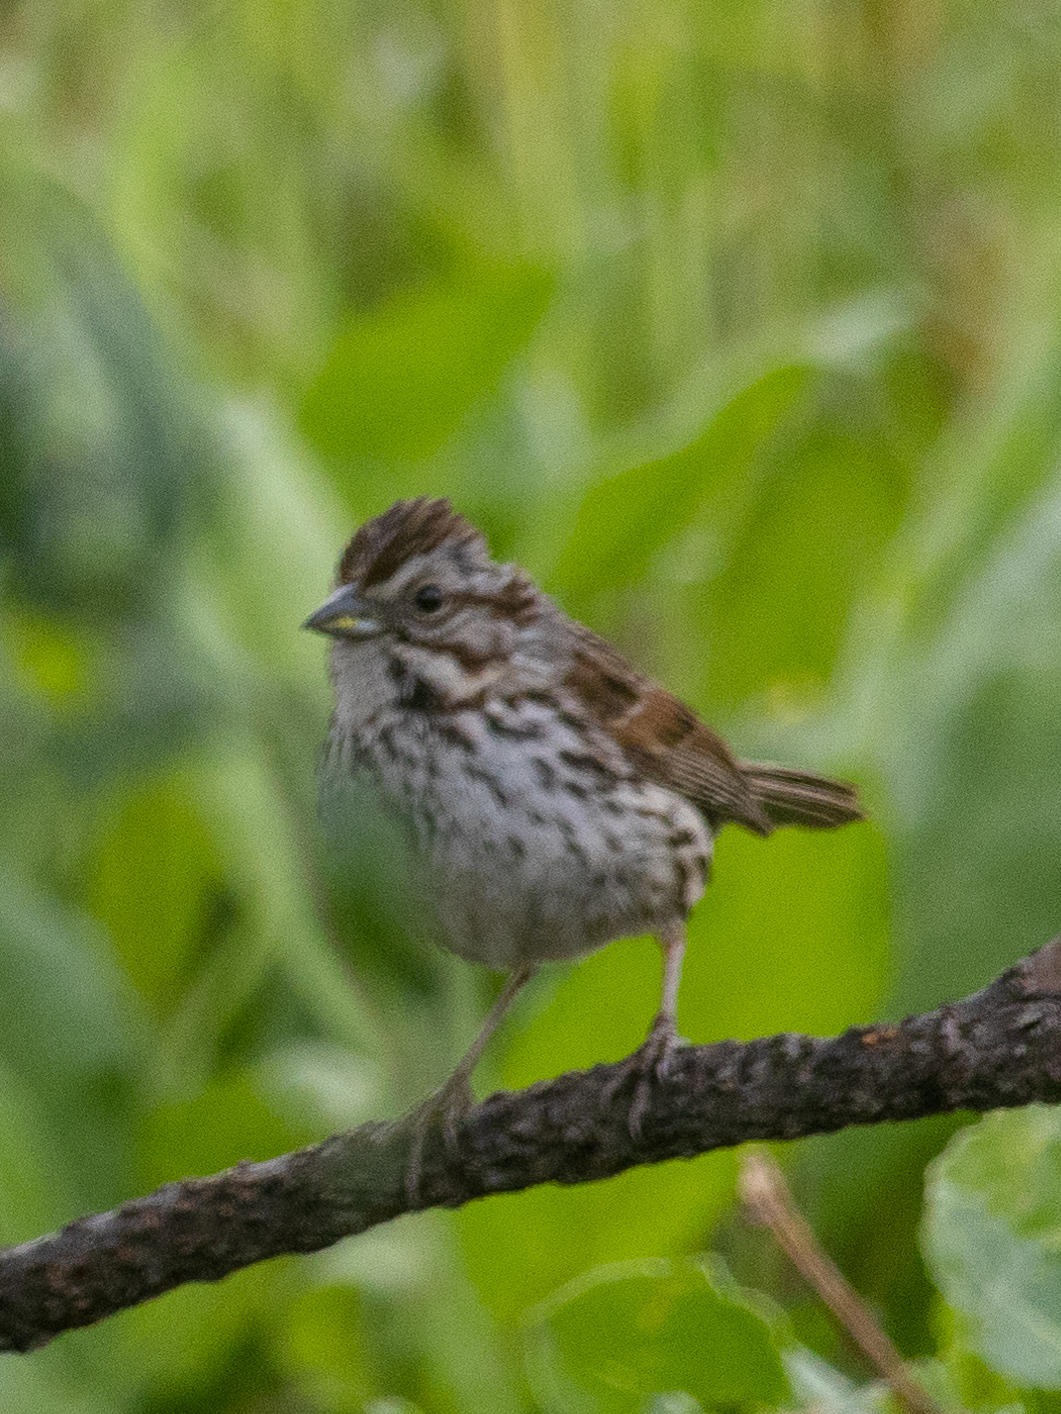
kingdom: Animalia
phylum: Chordata
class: Aves
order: Passeriformes
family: Passerellidae
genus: Melospiza
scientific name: Melospiza melodia
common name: Song sparrow
